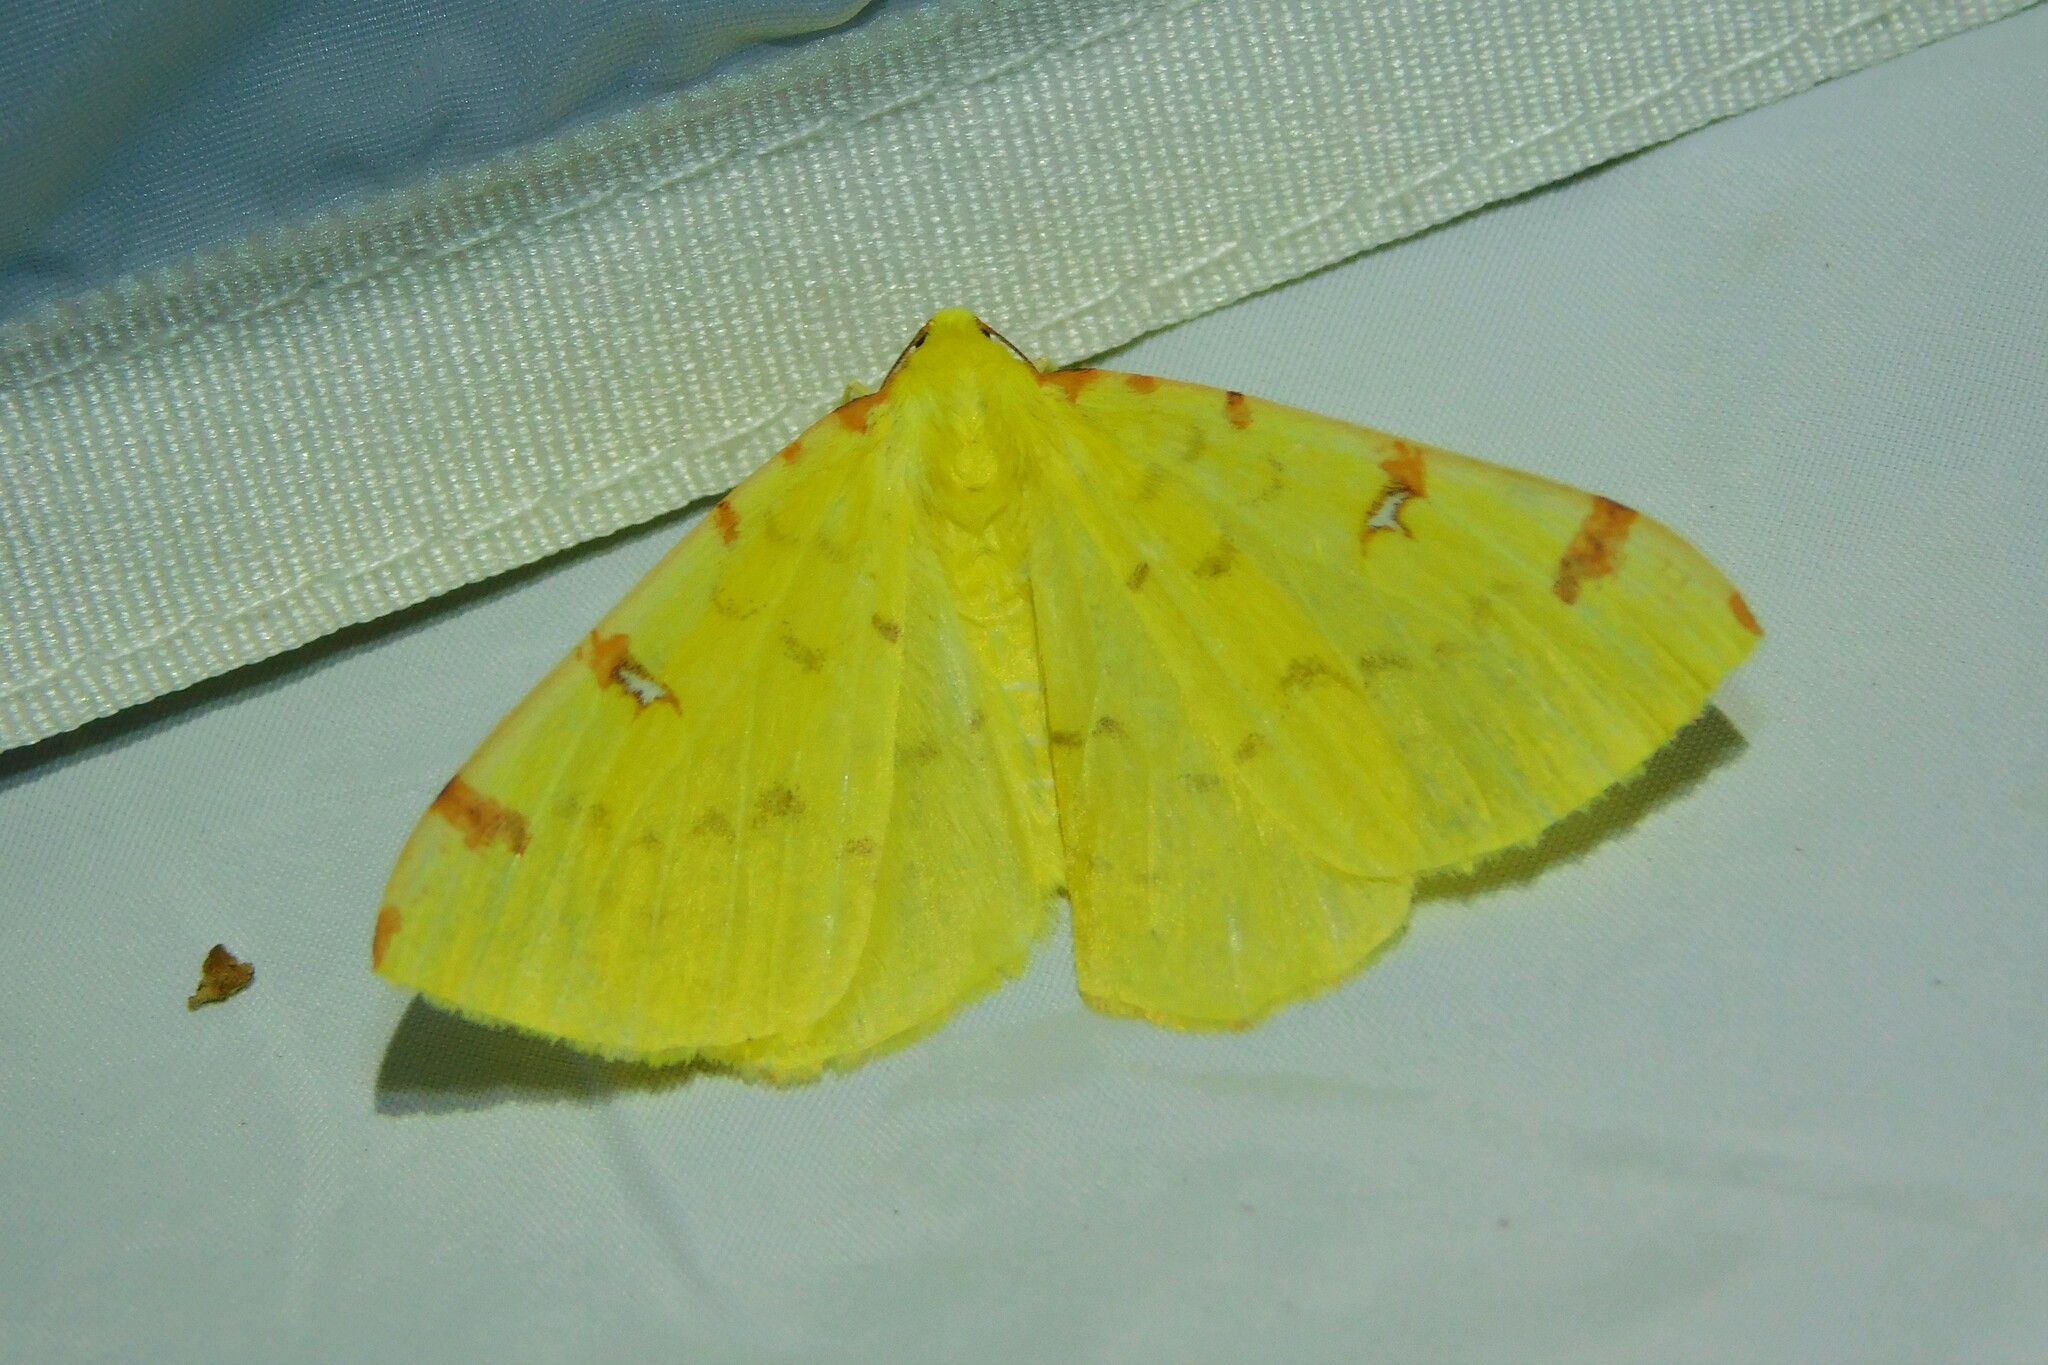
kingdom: Animalia
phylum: Arthropoda
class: Insecta
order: Lepidoptera
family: Geometridae
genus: Opisthograptis
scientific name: Opisthograptis luteolata
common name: Brimstone moth
